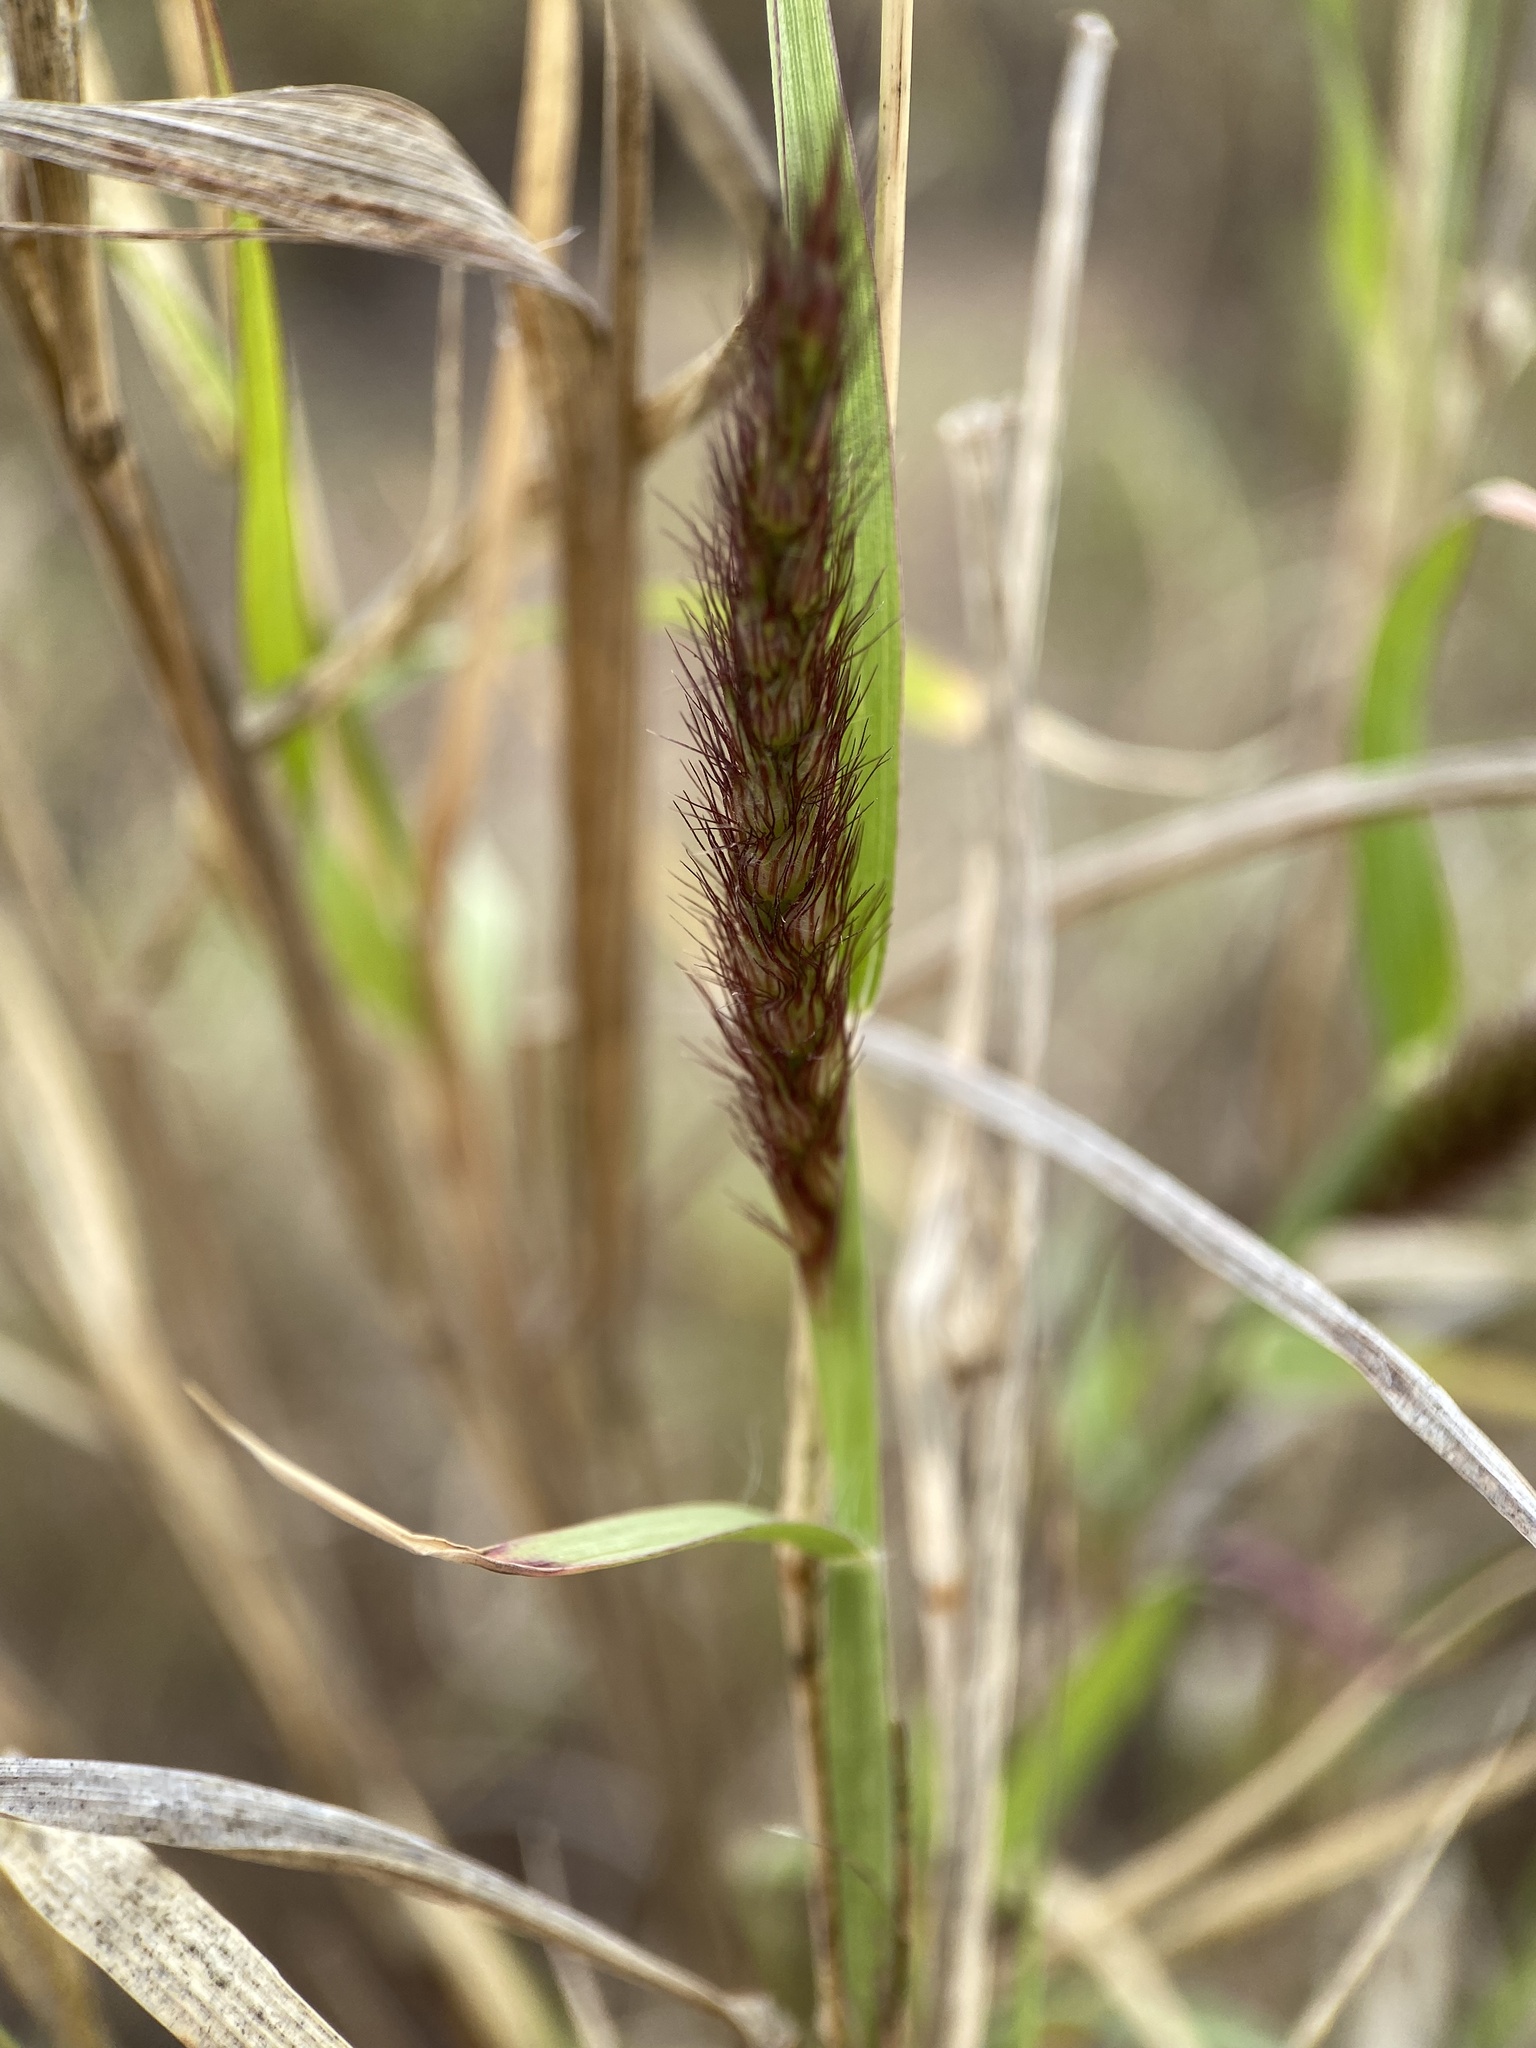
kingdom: Plantae
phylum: Tracheophyta
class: Liliopsida
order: Poales
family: Poaceae
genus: Cenchrus
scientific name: Cenchrus ciliaris
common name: Buffelgrass
